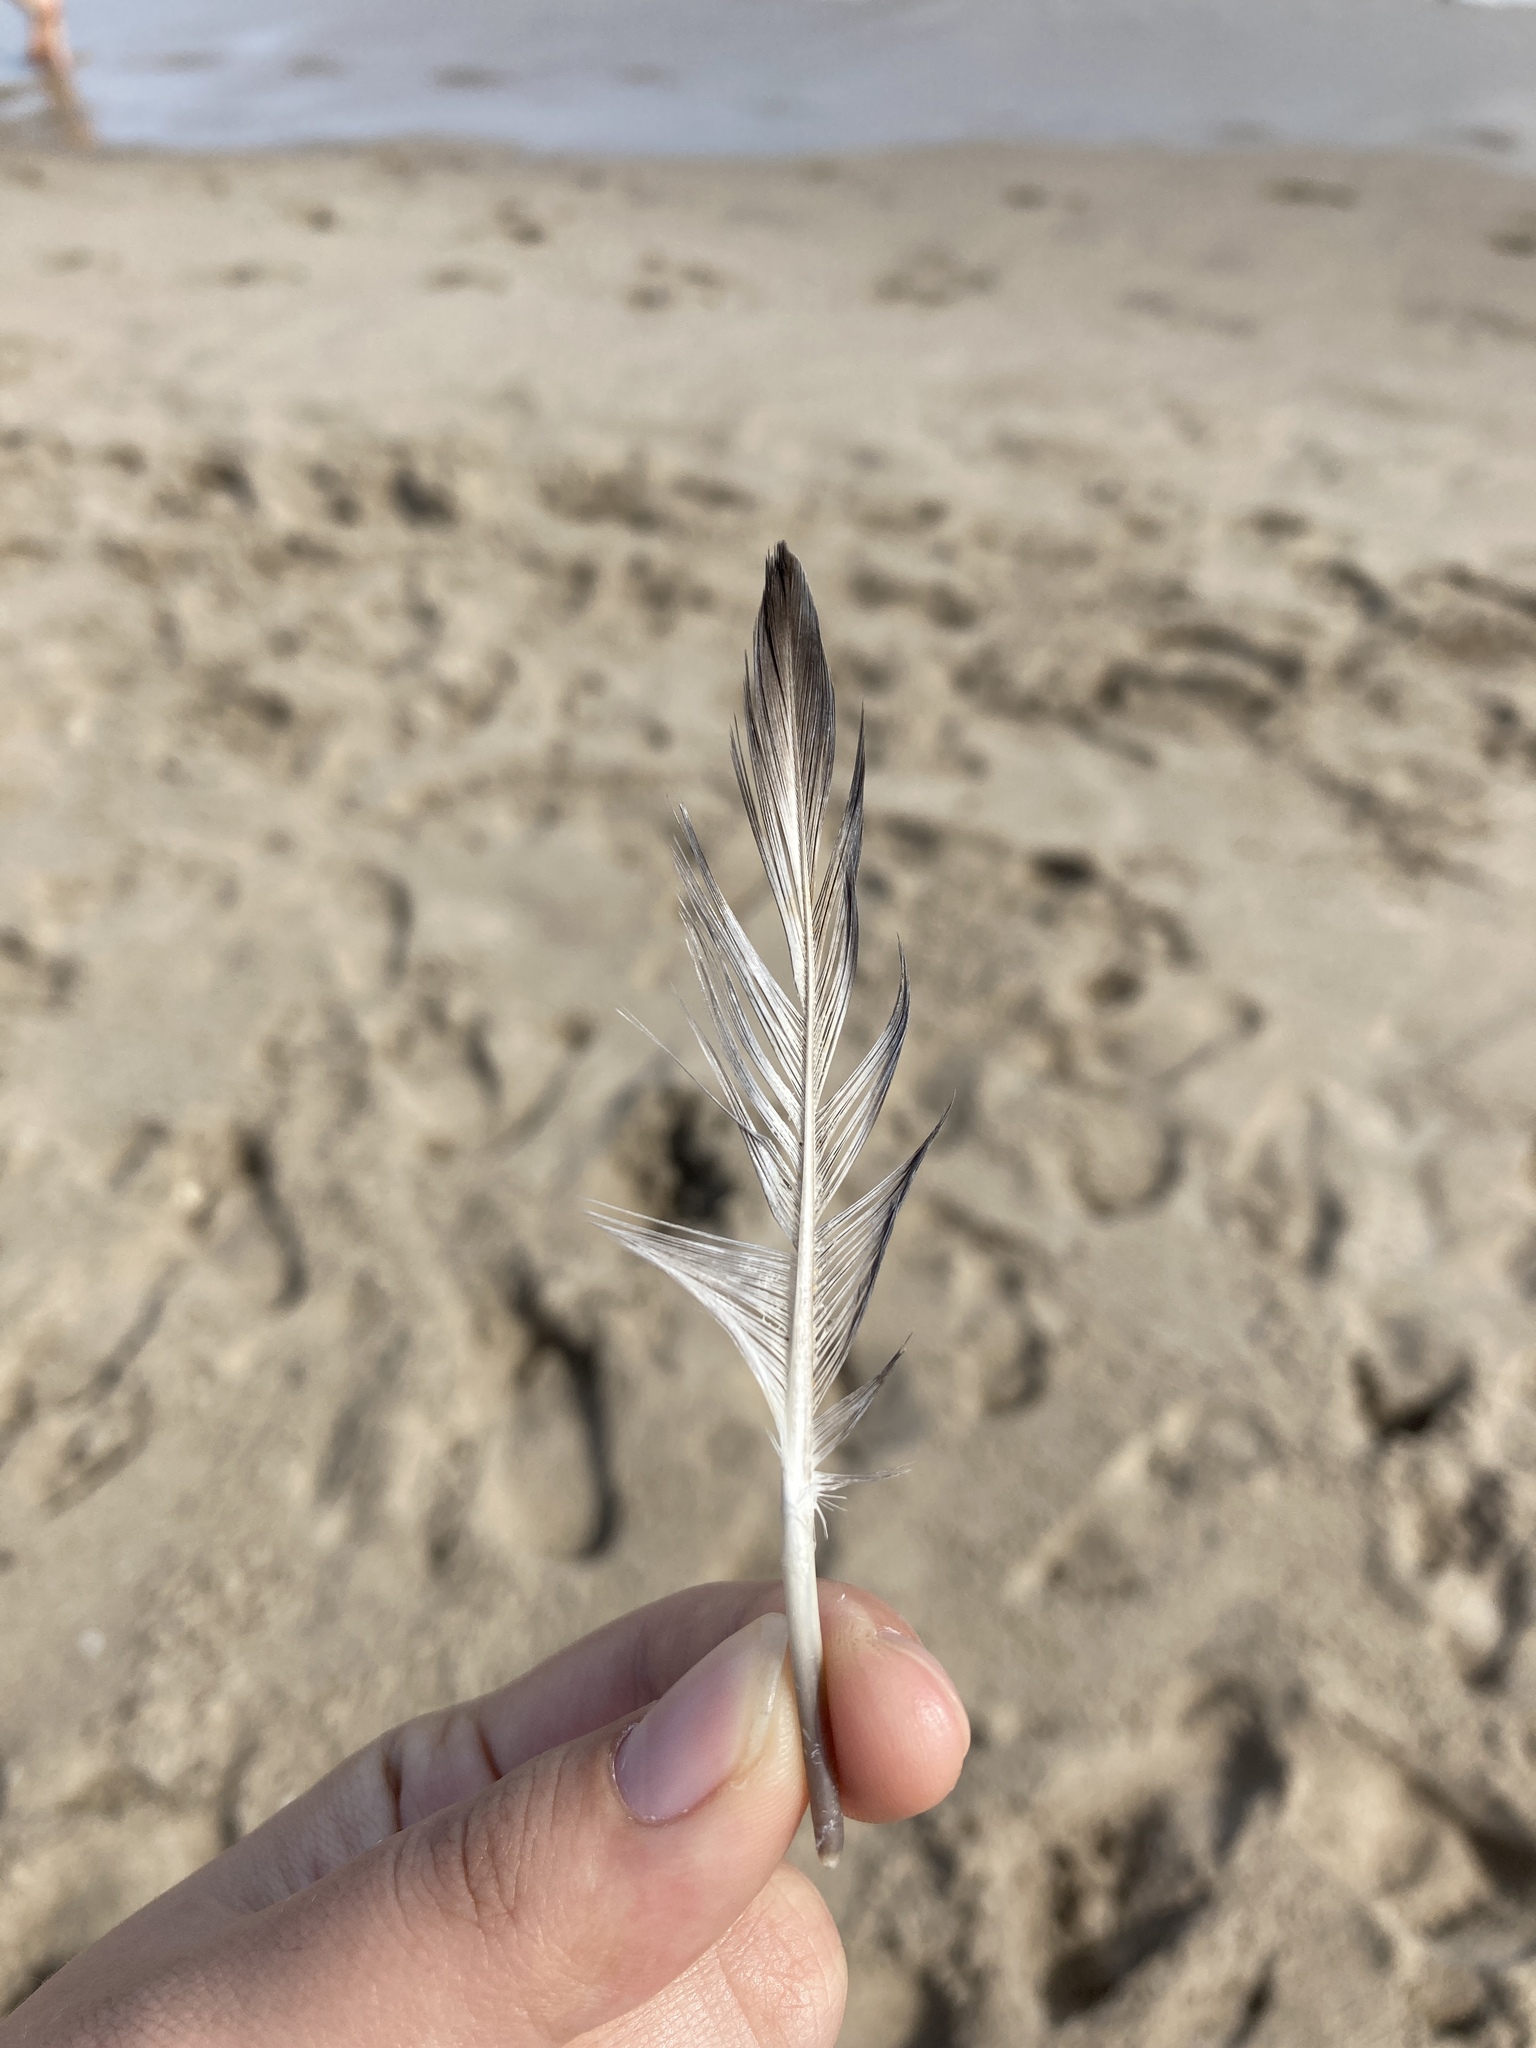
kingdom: Animalia
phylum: Chordata
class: Aves
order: Columbiformes
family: Columbidae
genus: Columba
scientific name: Columba livia
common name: Rock pigeon
